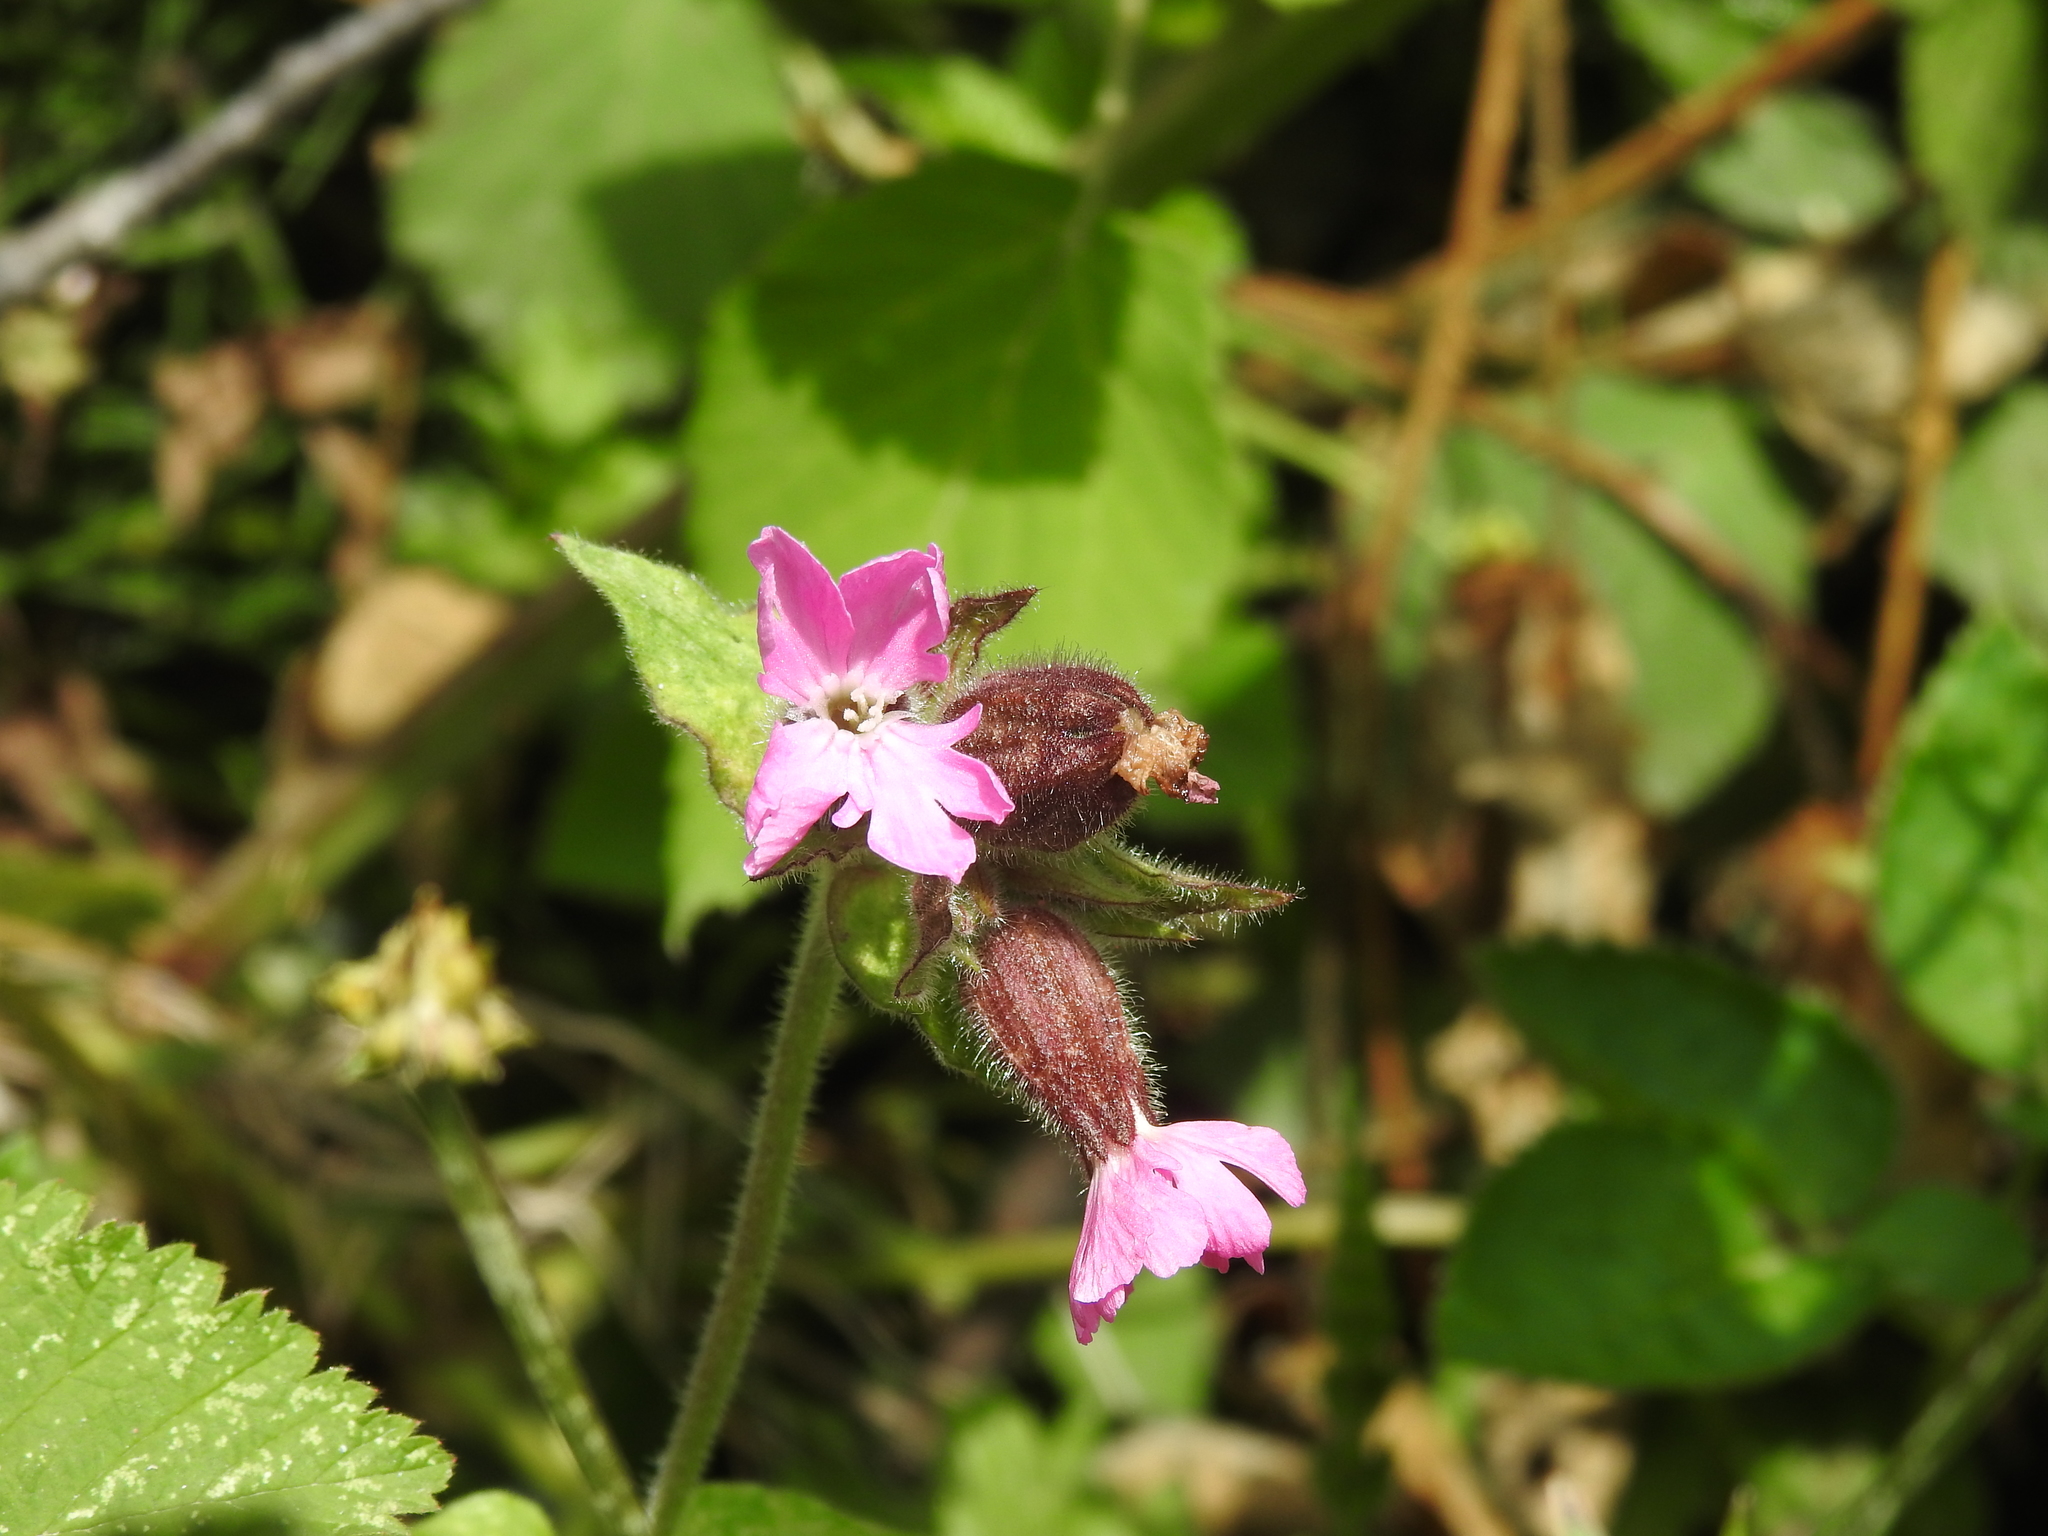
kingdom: Plantae
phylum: Tracheophyta
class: Magnoliopsida
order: Caryophyllales
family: Caryophyllaceae
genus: Silene
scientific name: Silene dioica
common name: Red campion
